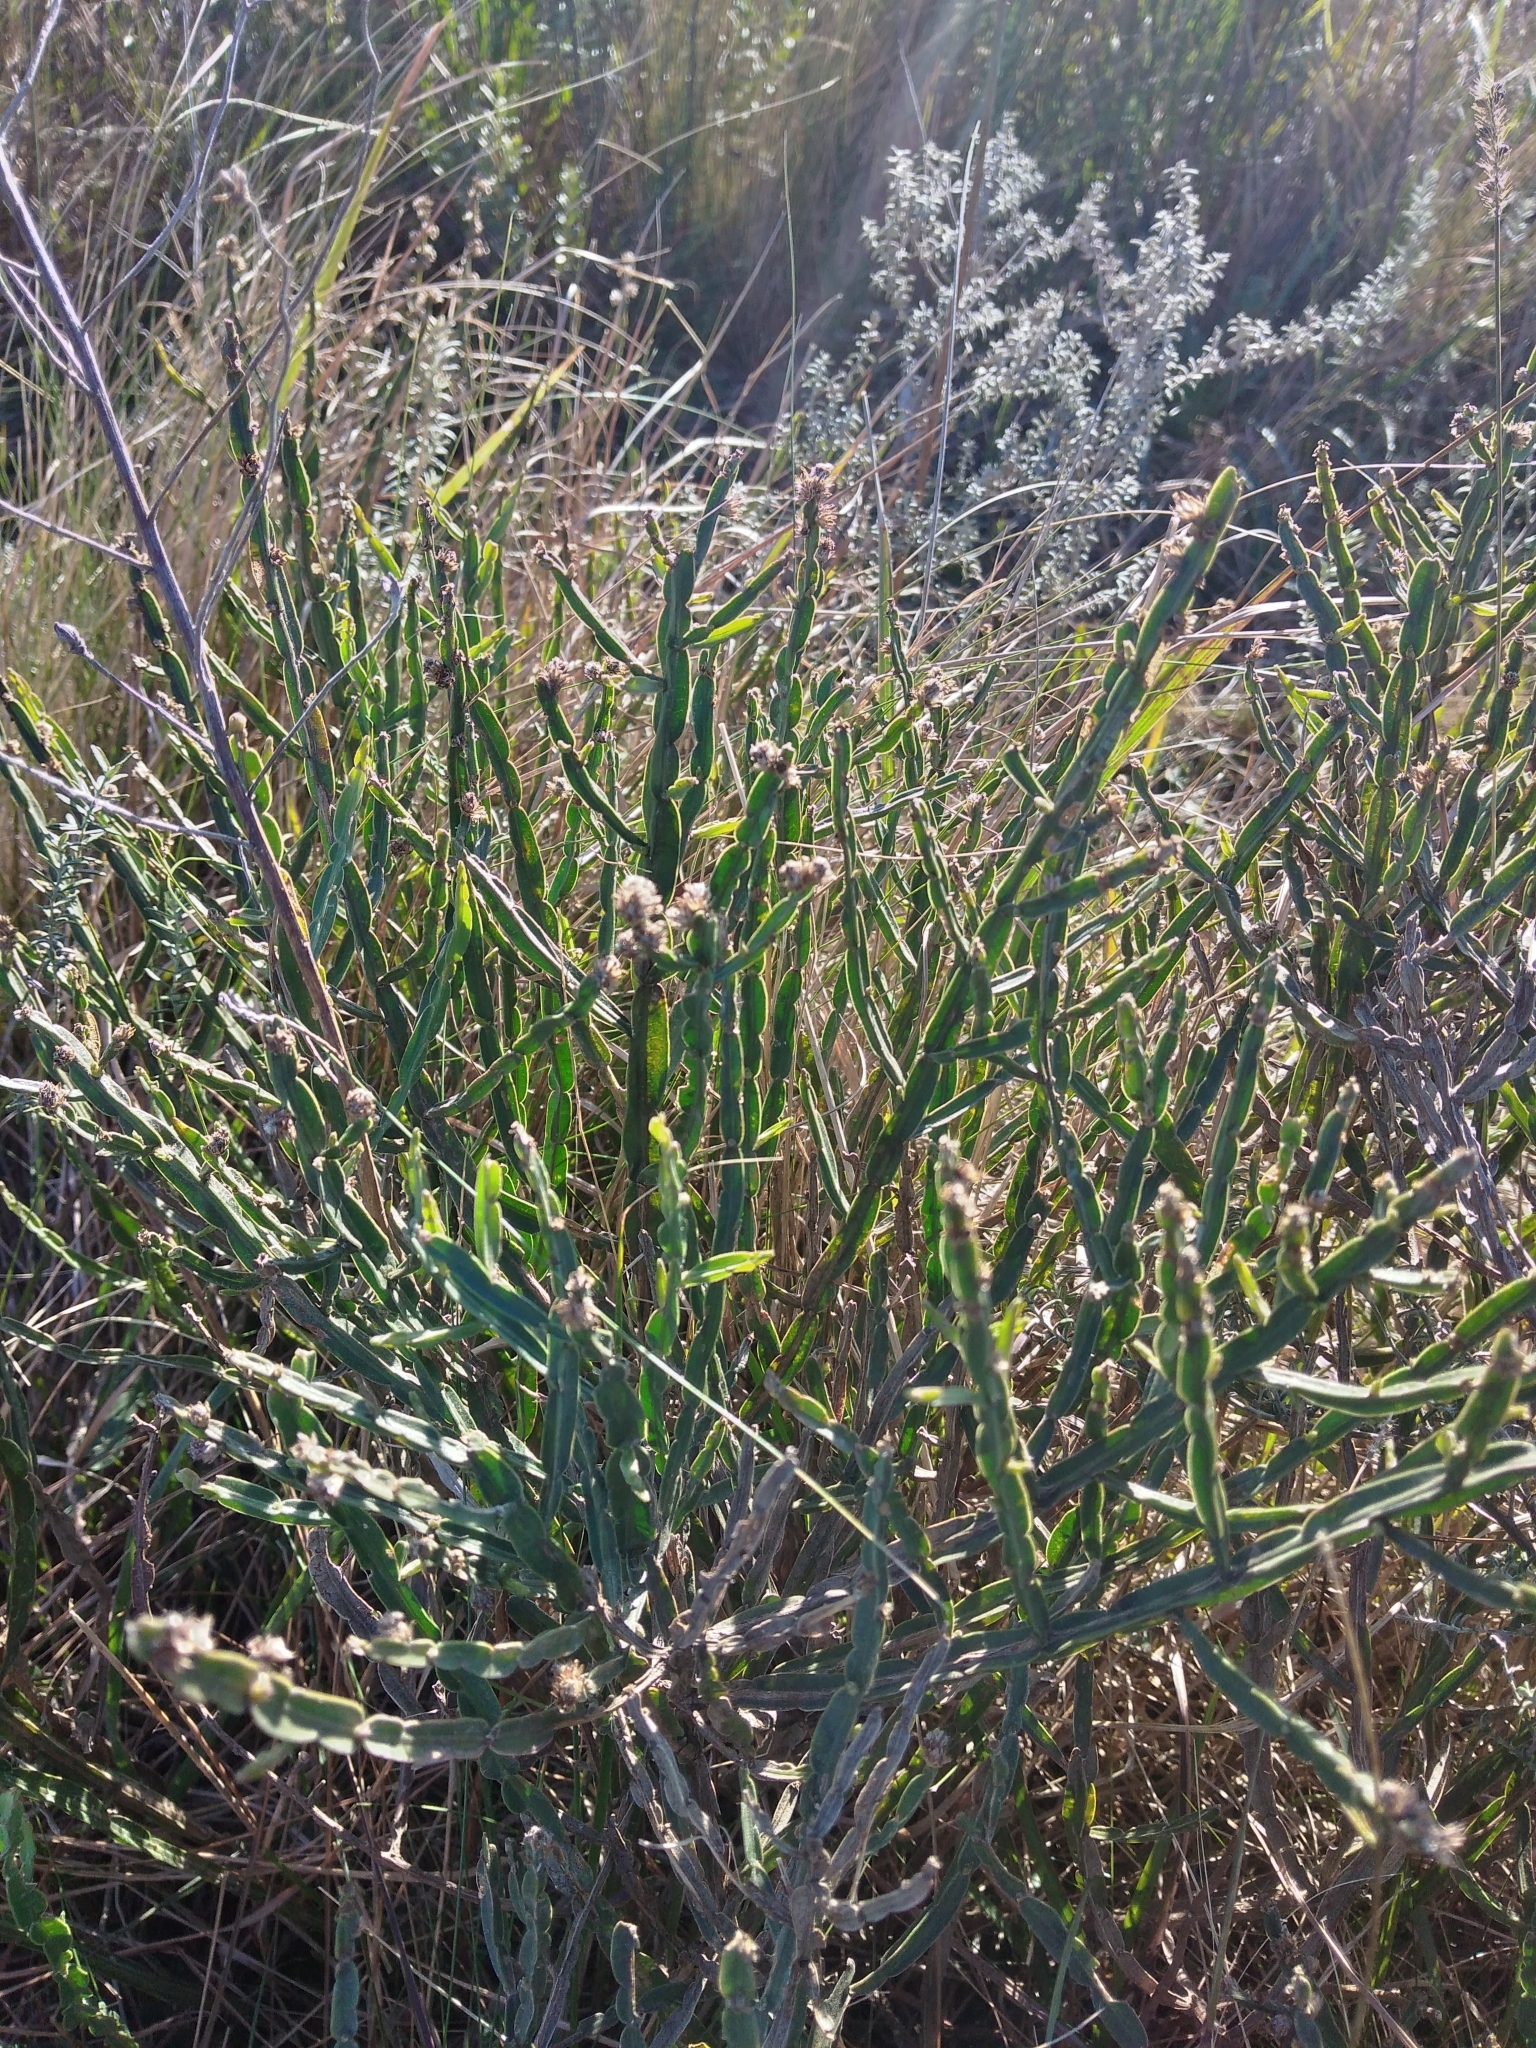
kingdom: Plantae
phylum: Tracheophyta
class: Magnoliopsida
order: Asterales
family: Asteraceae
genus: Baccharis
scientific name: Baccharis trimera
